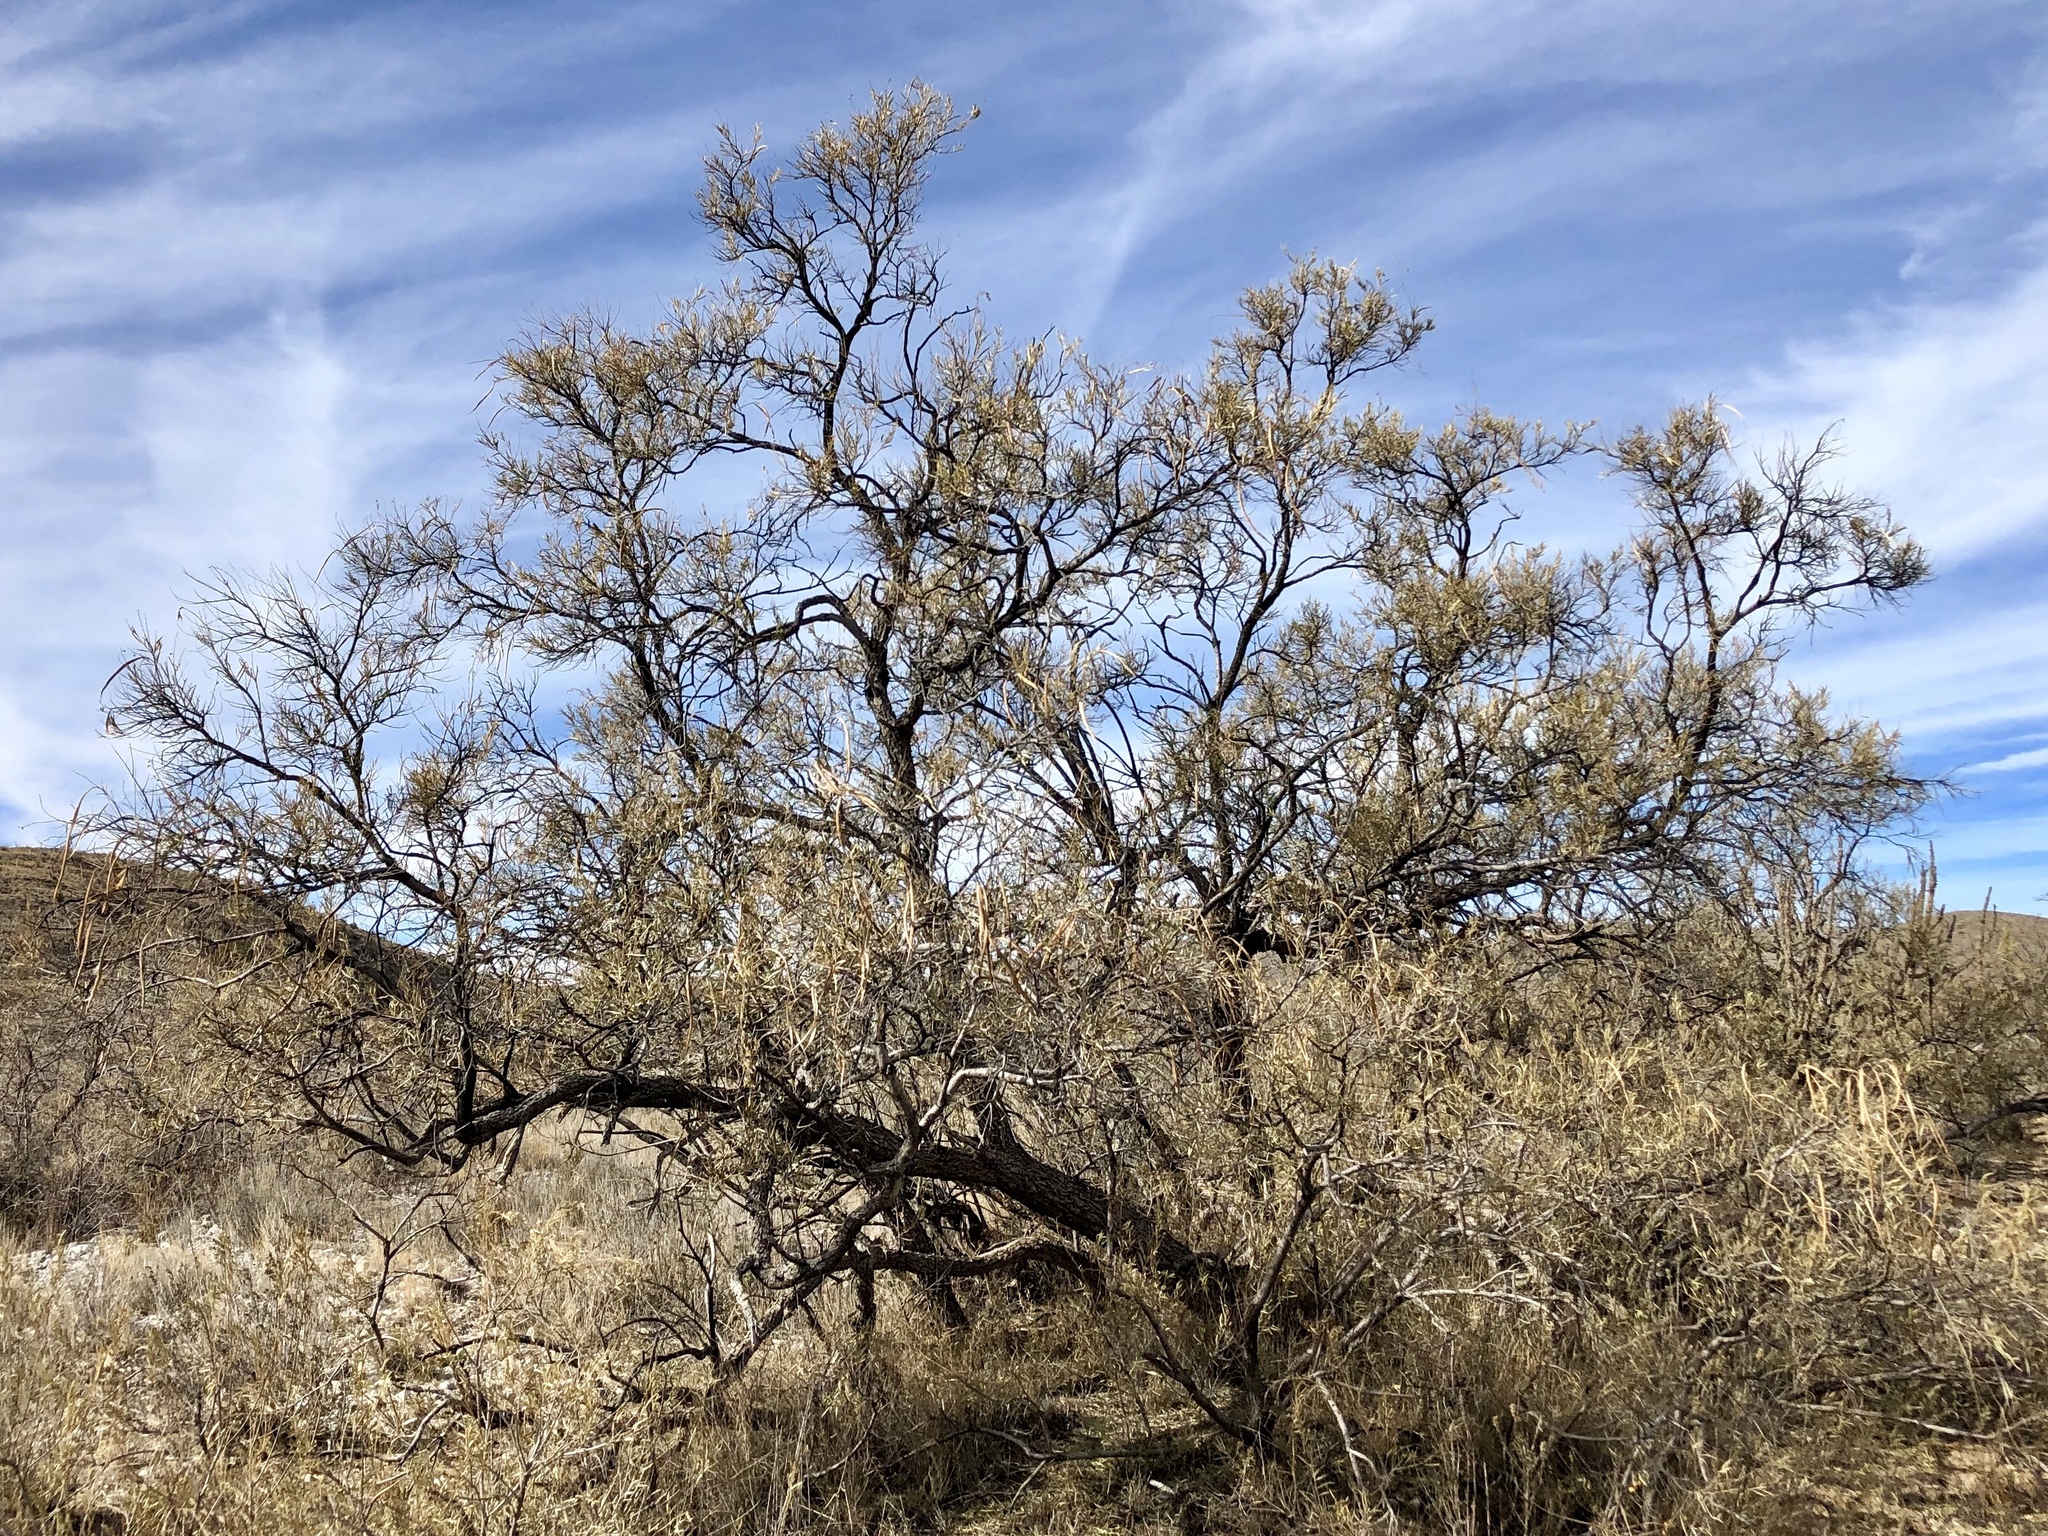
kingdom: Plantae
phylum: Tracheophyta
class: Magnoliopsida
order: Lamiales
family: Bignoniaceae
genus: Chilopsis
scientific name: Chilopsis linearis
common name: Desert-willow
